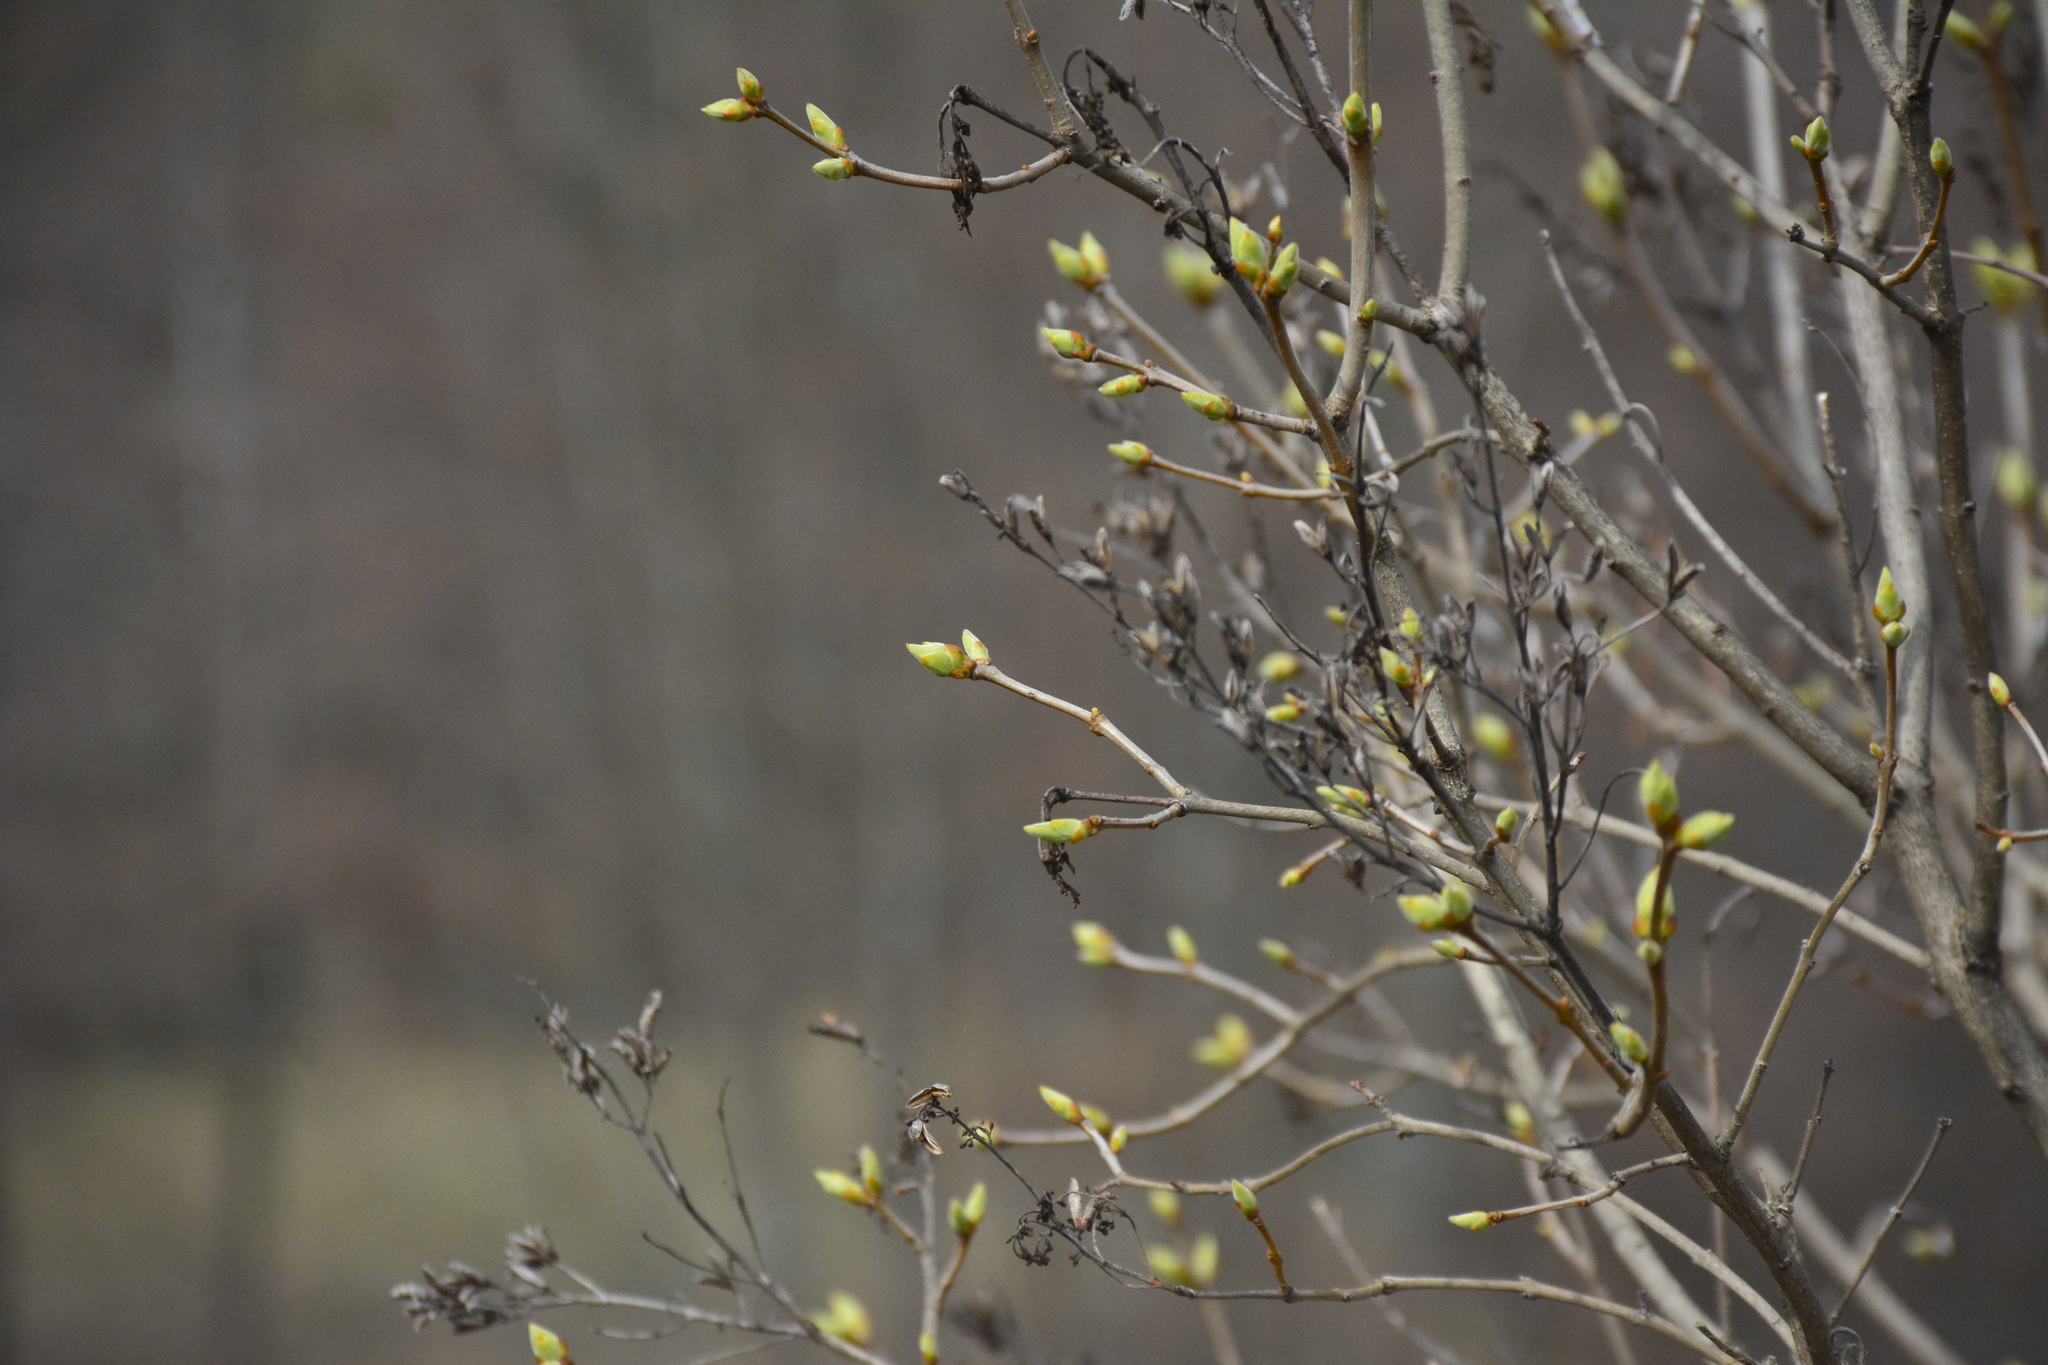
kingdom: Plantae
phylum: Tracheophyta
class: Magnoliopsida
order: Lamiales
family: Oleaceae
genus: Syringa
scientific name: Syringa vulgaris
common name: Common lilac
